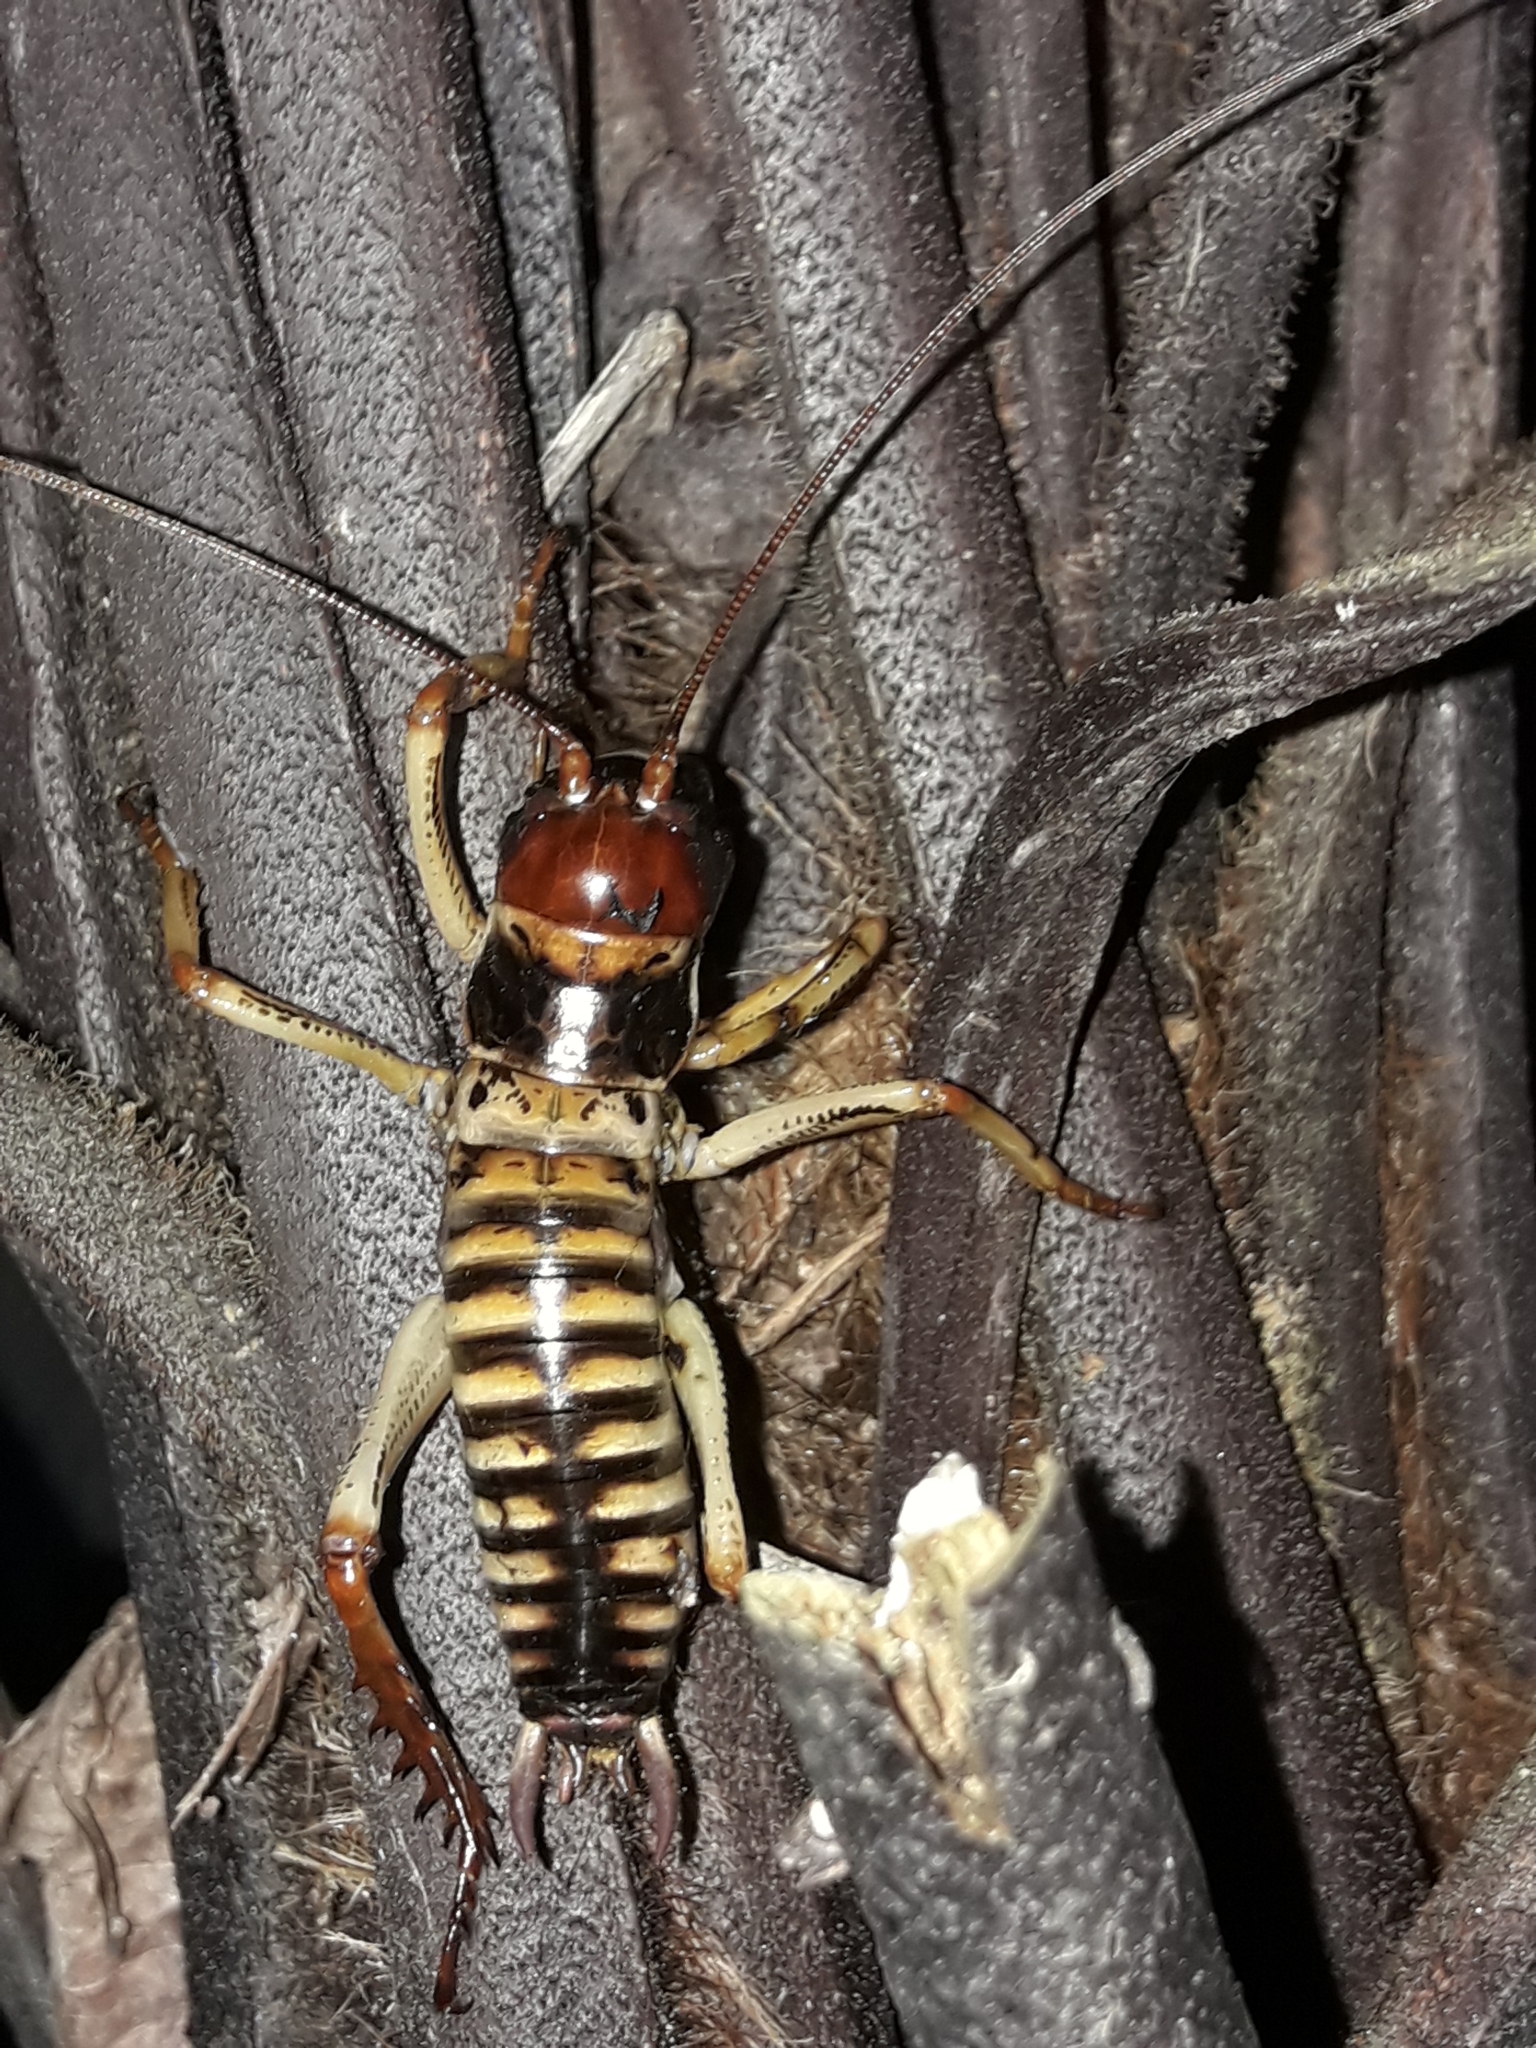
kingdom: Animalia
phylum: Arthropoda
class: Insecta
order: Orthoptera
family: Anostostomatidae
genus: Hemideina
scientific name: Hemideina crassidens
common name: Wellington tree weta
